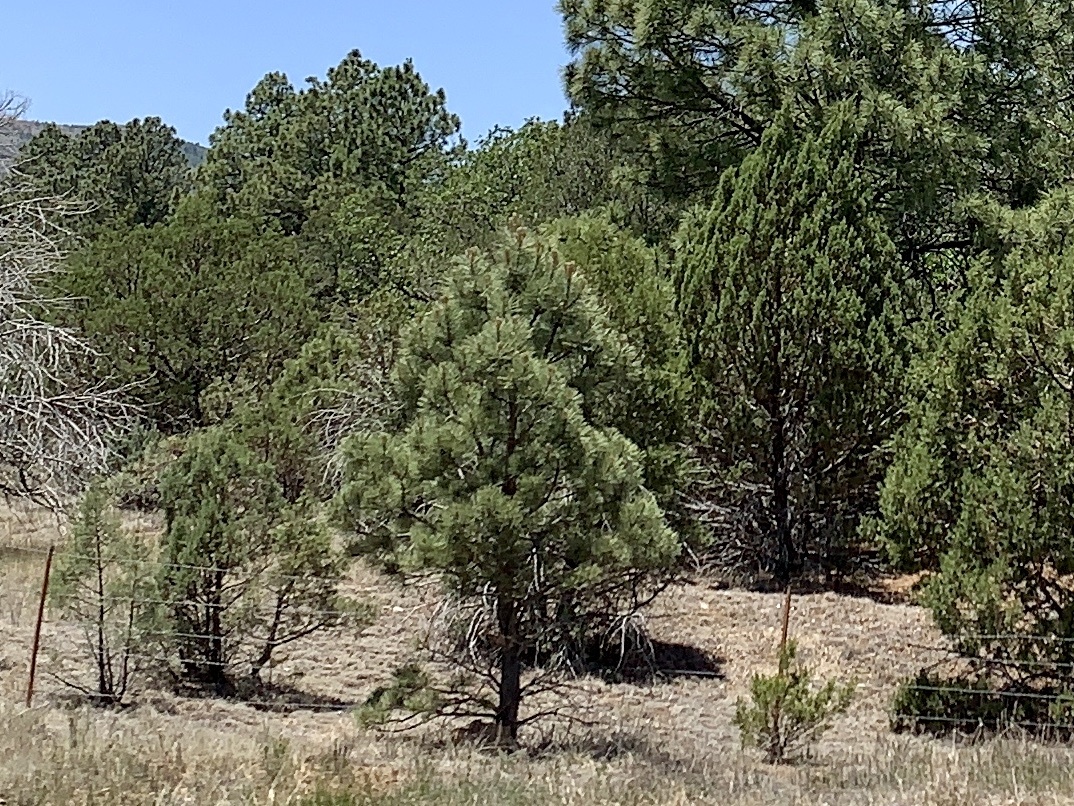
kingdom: Plantae
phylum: Tracheophyta
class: Pinopsida
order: Pinales
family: Pinaceae
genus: Pinus
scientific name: Pinus ponderosa
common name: Western yellow-pine
